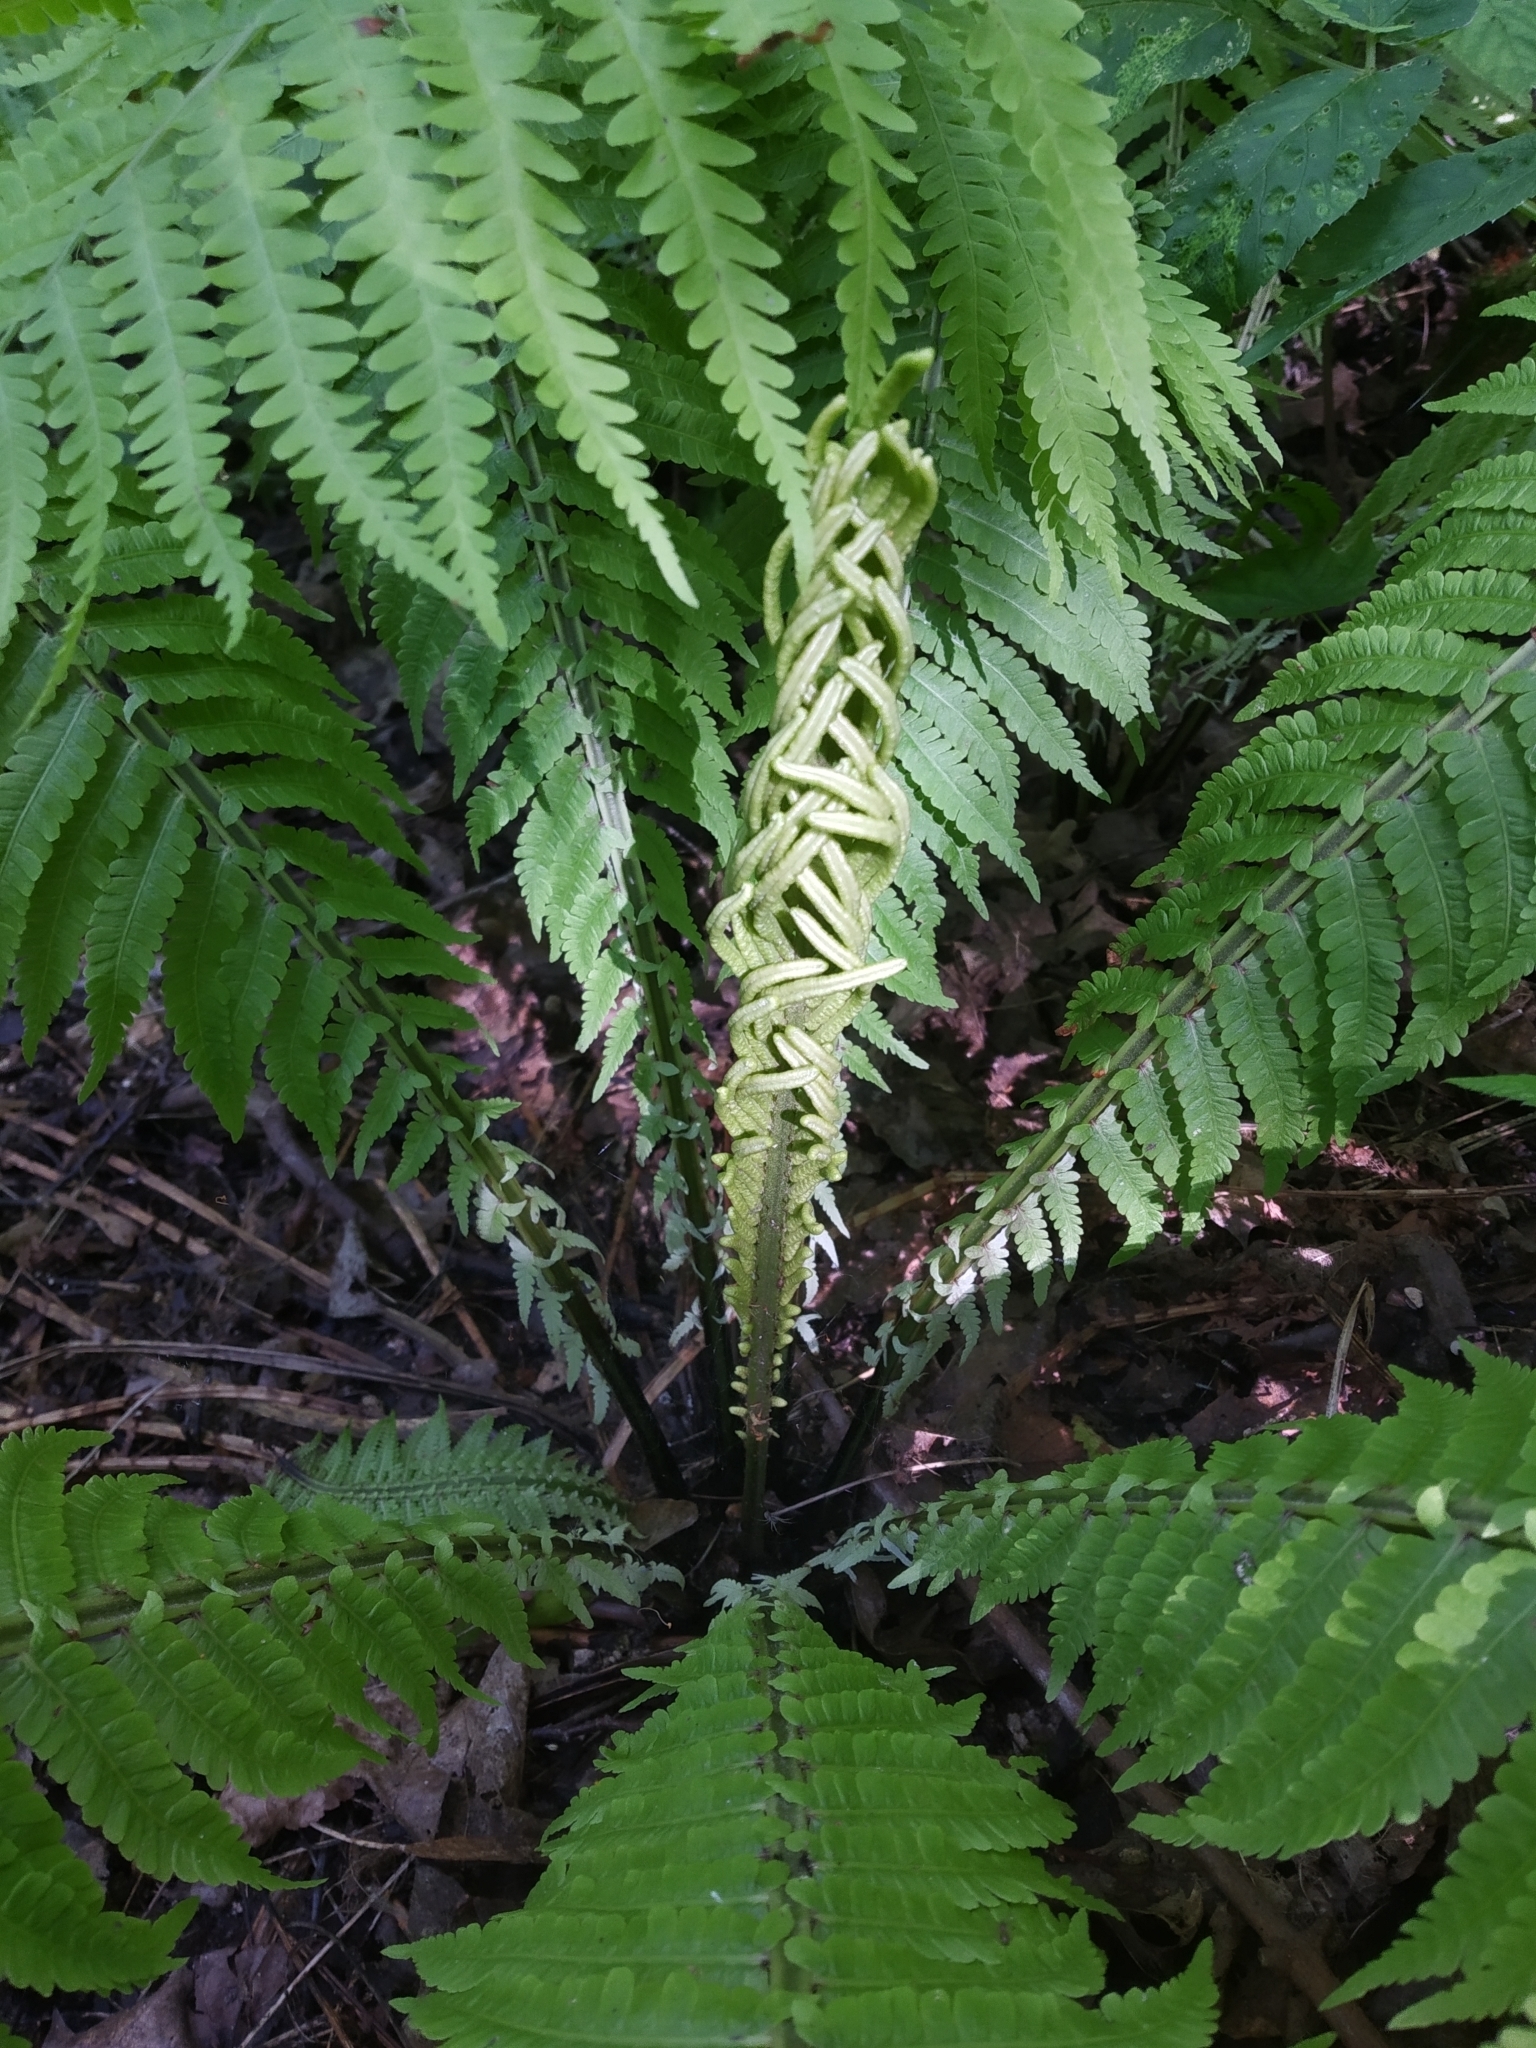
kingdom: Plantae
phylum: Tracheophyta
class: Polypodiopsida
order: Polypodiales
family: Onocleaceae
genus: Matteuccia
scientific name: Matteuccia struthiopteris
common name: Ostrich fern
